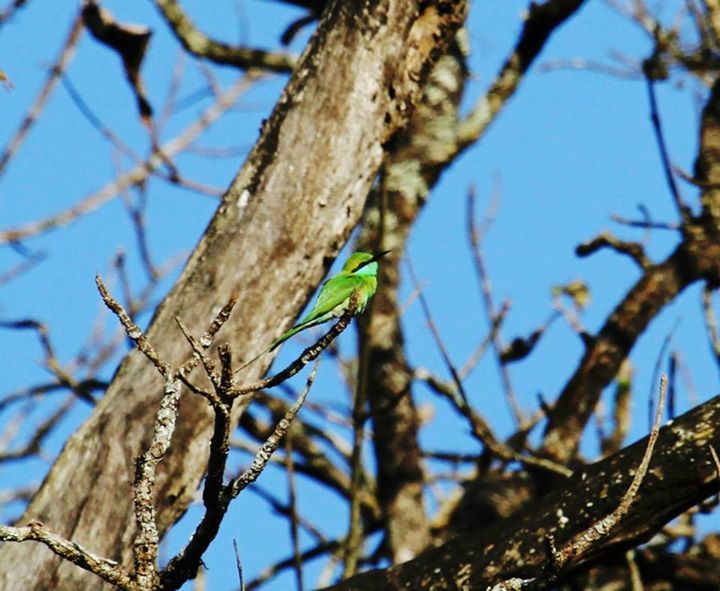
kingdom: Animalia
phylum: Chordata
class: Aves
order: Coraciiformes
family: Meropidae
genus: Merops
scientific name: Merops orientalis
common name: Green bee-eater
